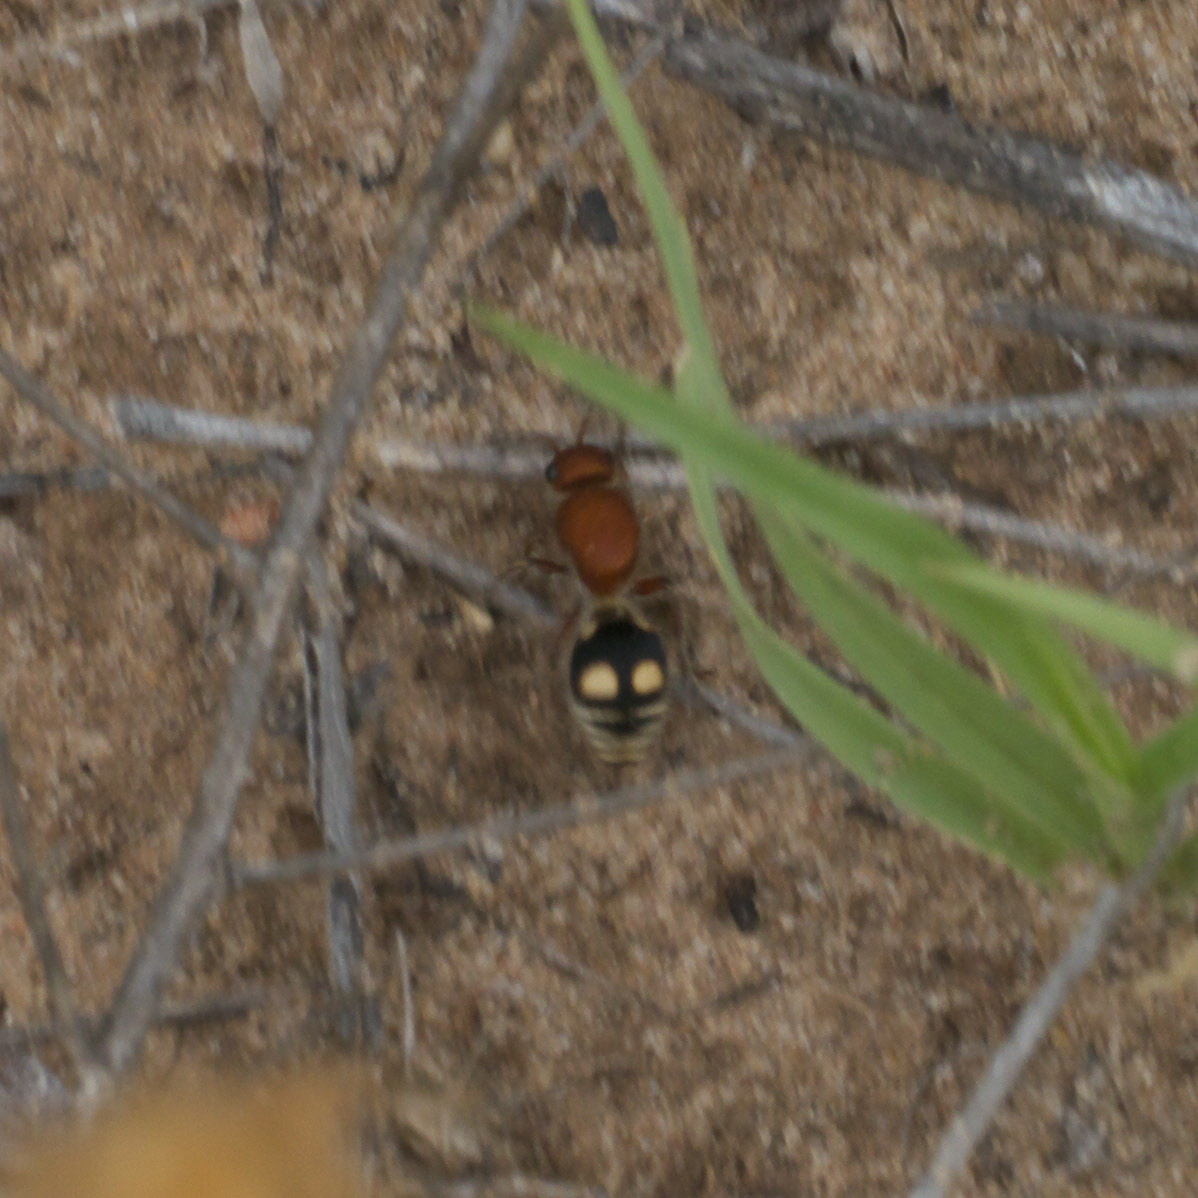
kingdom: Animalia
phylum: Arthropoda
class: Insecta
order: Hymenoptera
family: Mutillidae
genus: Dasymutilla
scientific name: Dasymutilla
